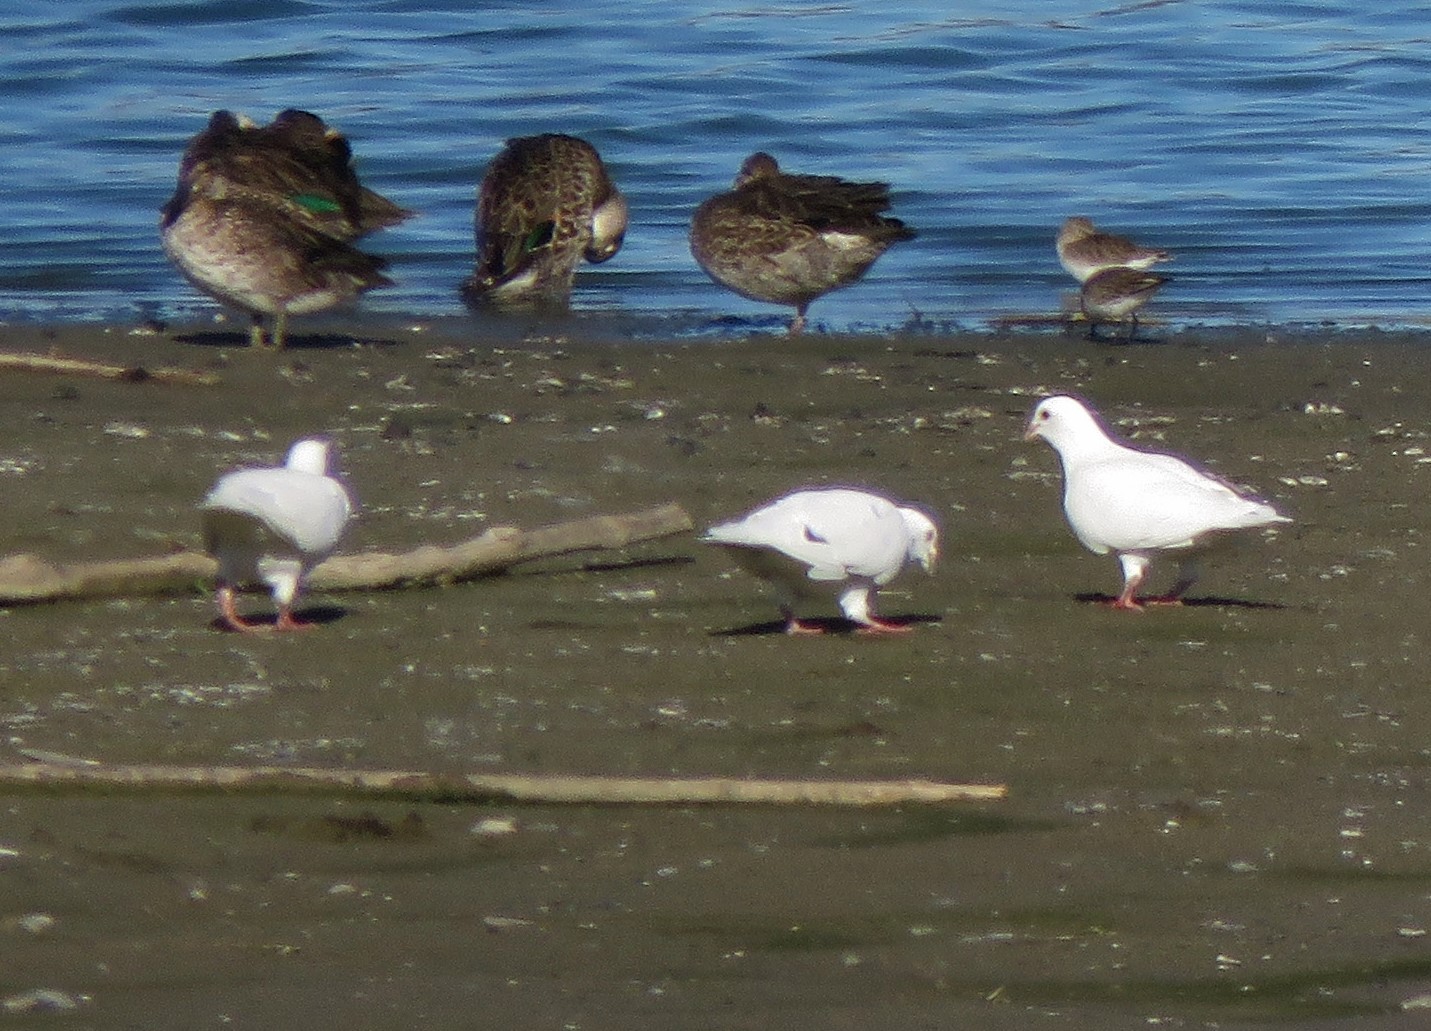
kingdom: Animalia
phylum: Chordata
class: Aves
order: Columbiformes
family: Columbidae
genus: Columba
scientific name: Columba livia
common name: Rock pigeon
